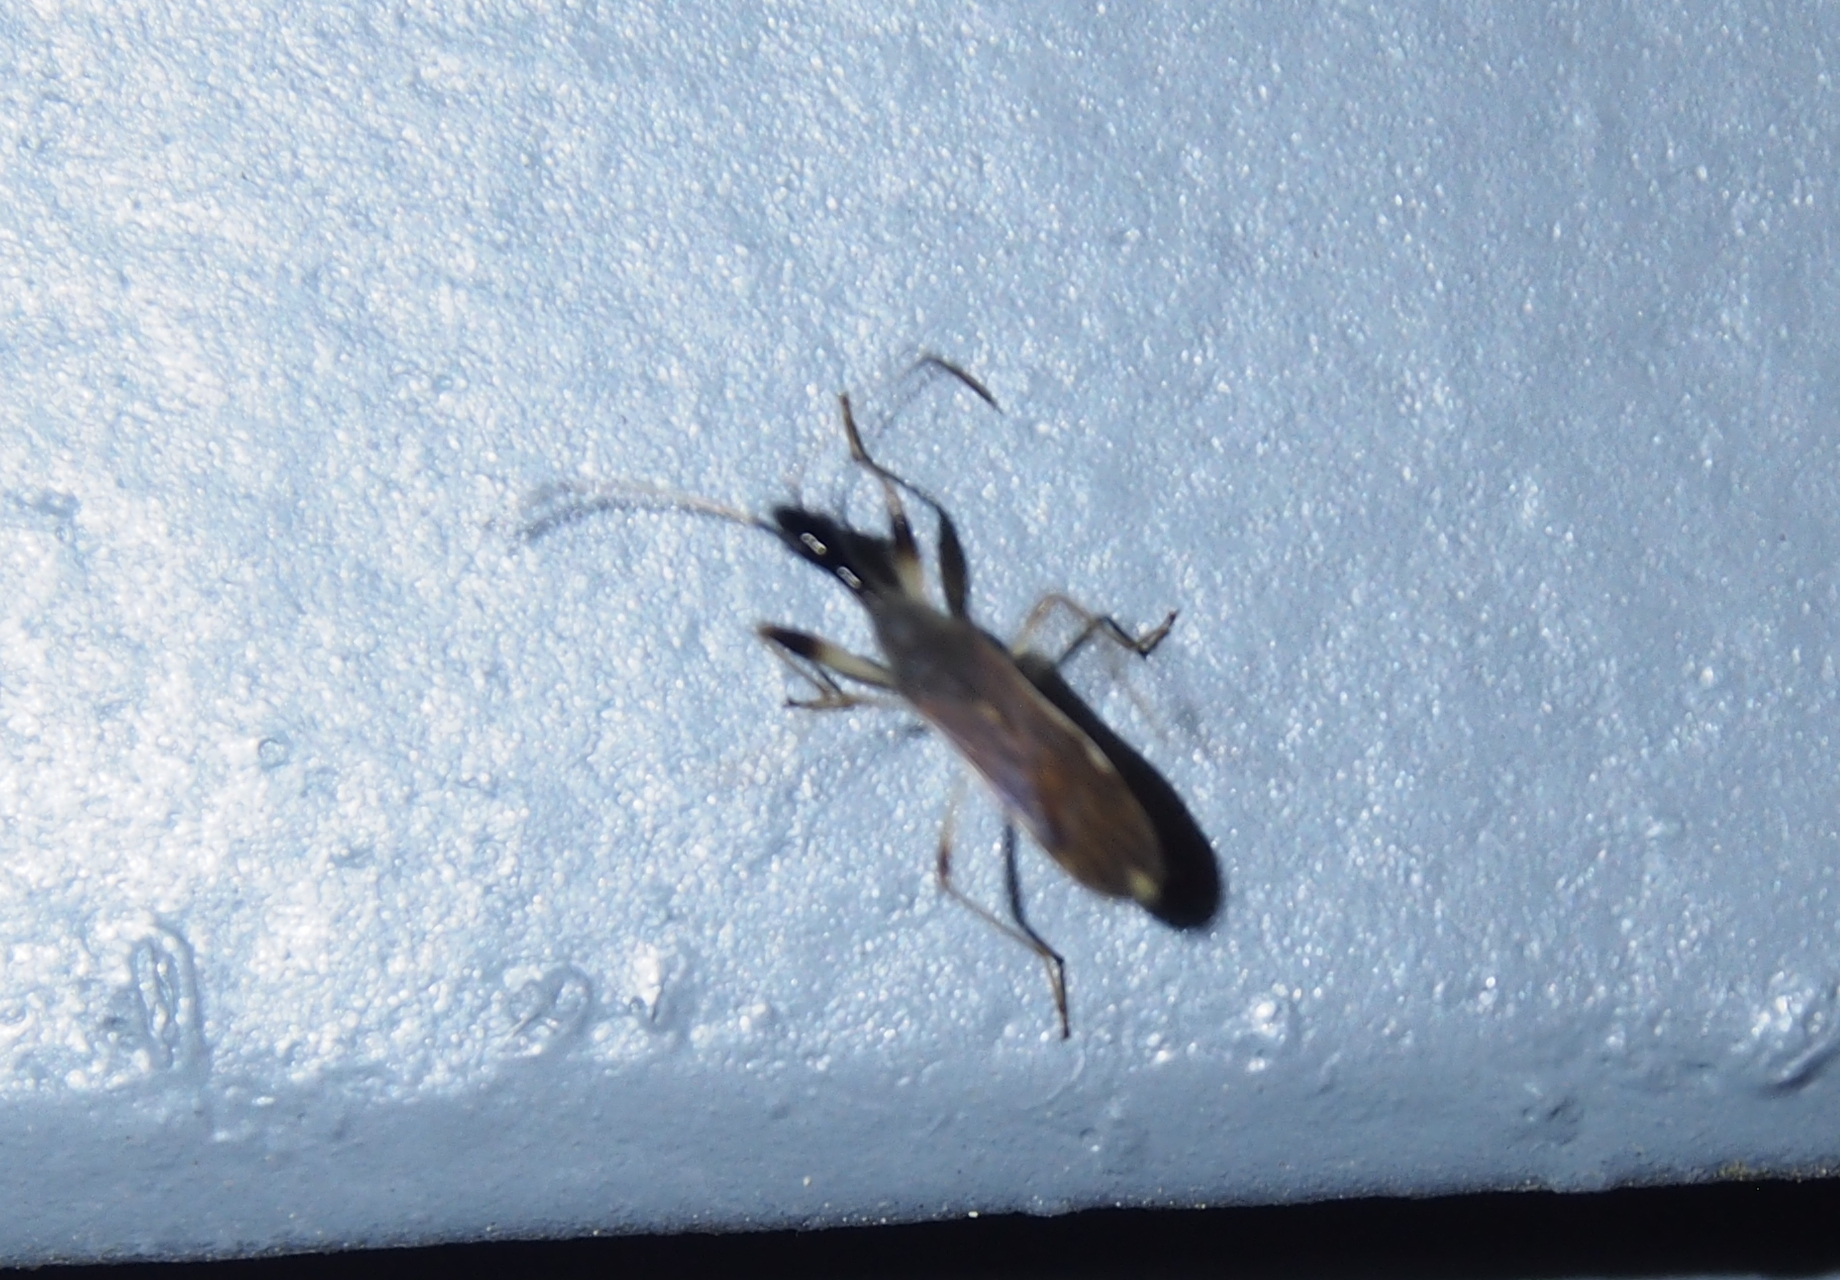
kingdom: Animalia
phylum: Arthropoda
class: Insecta
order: Hemiptera
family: Rhyparochromidae
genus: Myodocha
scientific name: Myodocha serripes
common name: Long-necked seed bug
